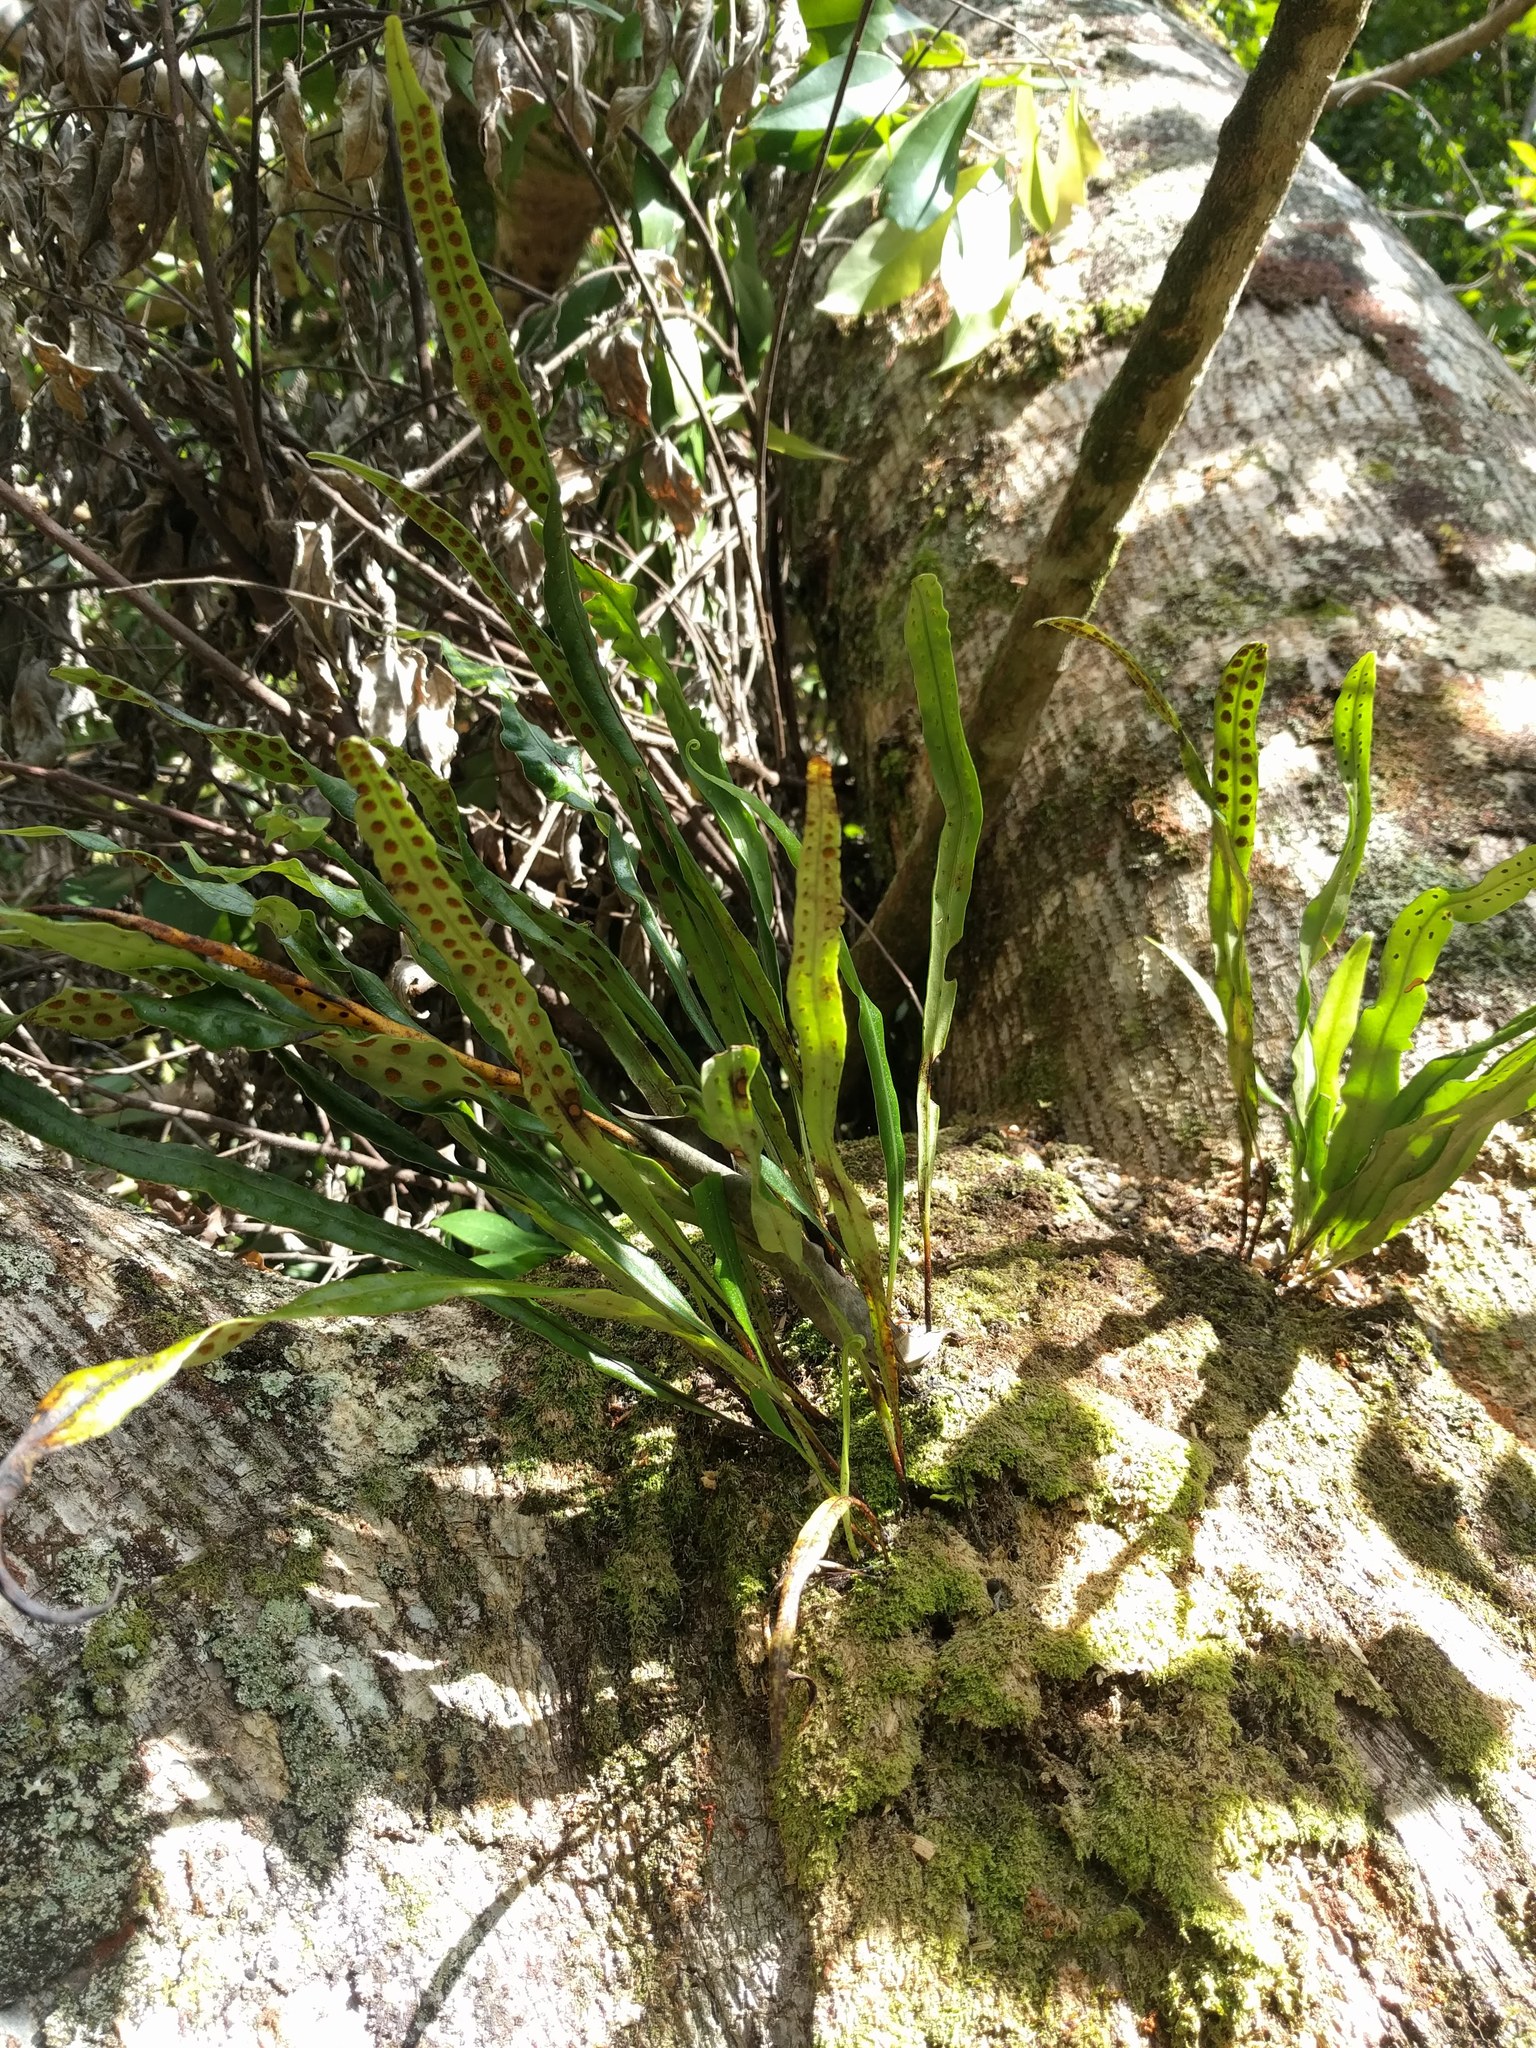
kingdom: Plantae
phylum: Tracheophyta
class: Polypodiopsida
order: Polypodiales
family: Polypodiaceae
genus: Lepisorus
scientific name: Lepisorus thunbergianus
